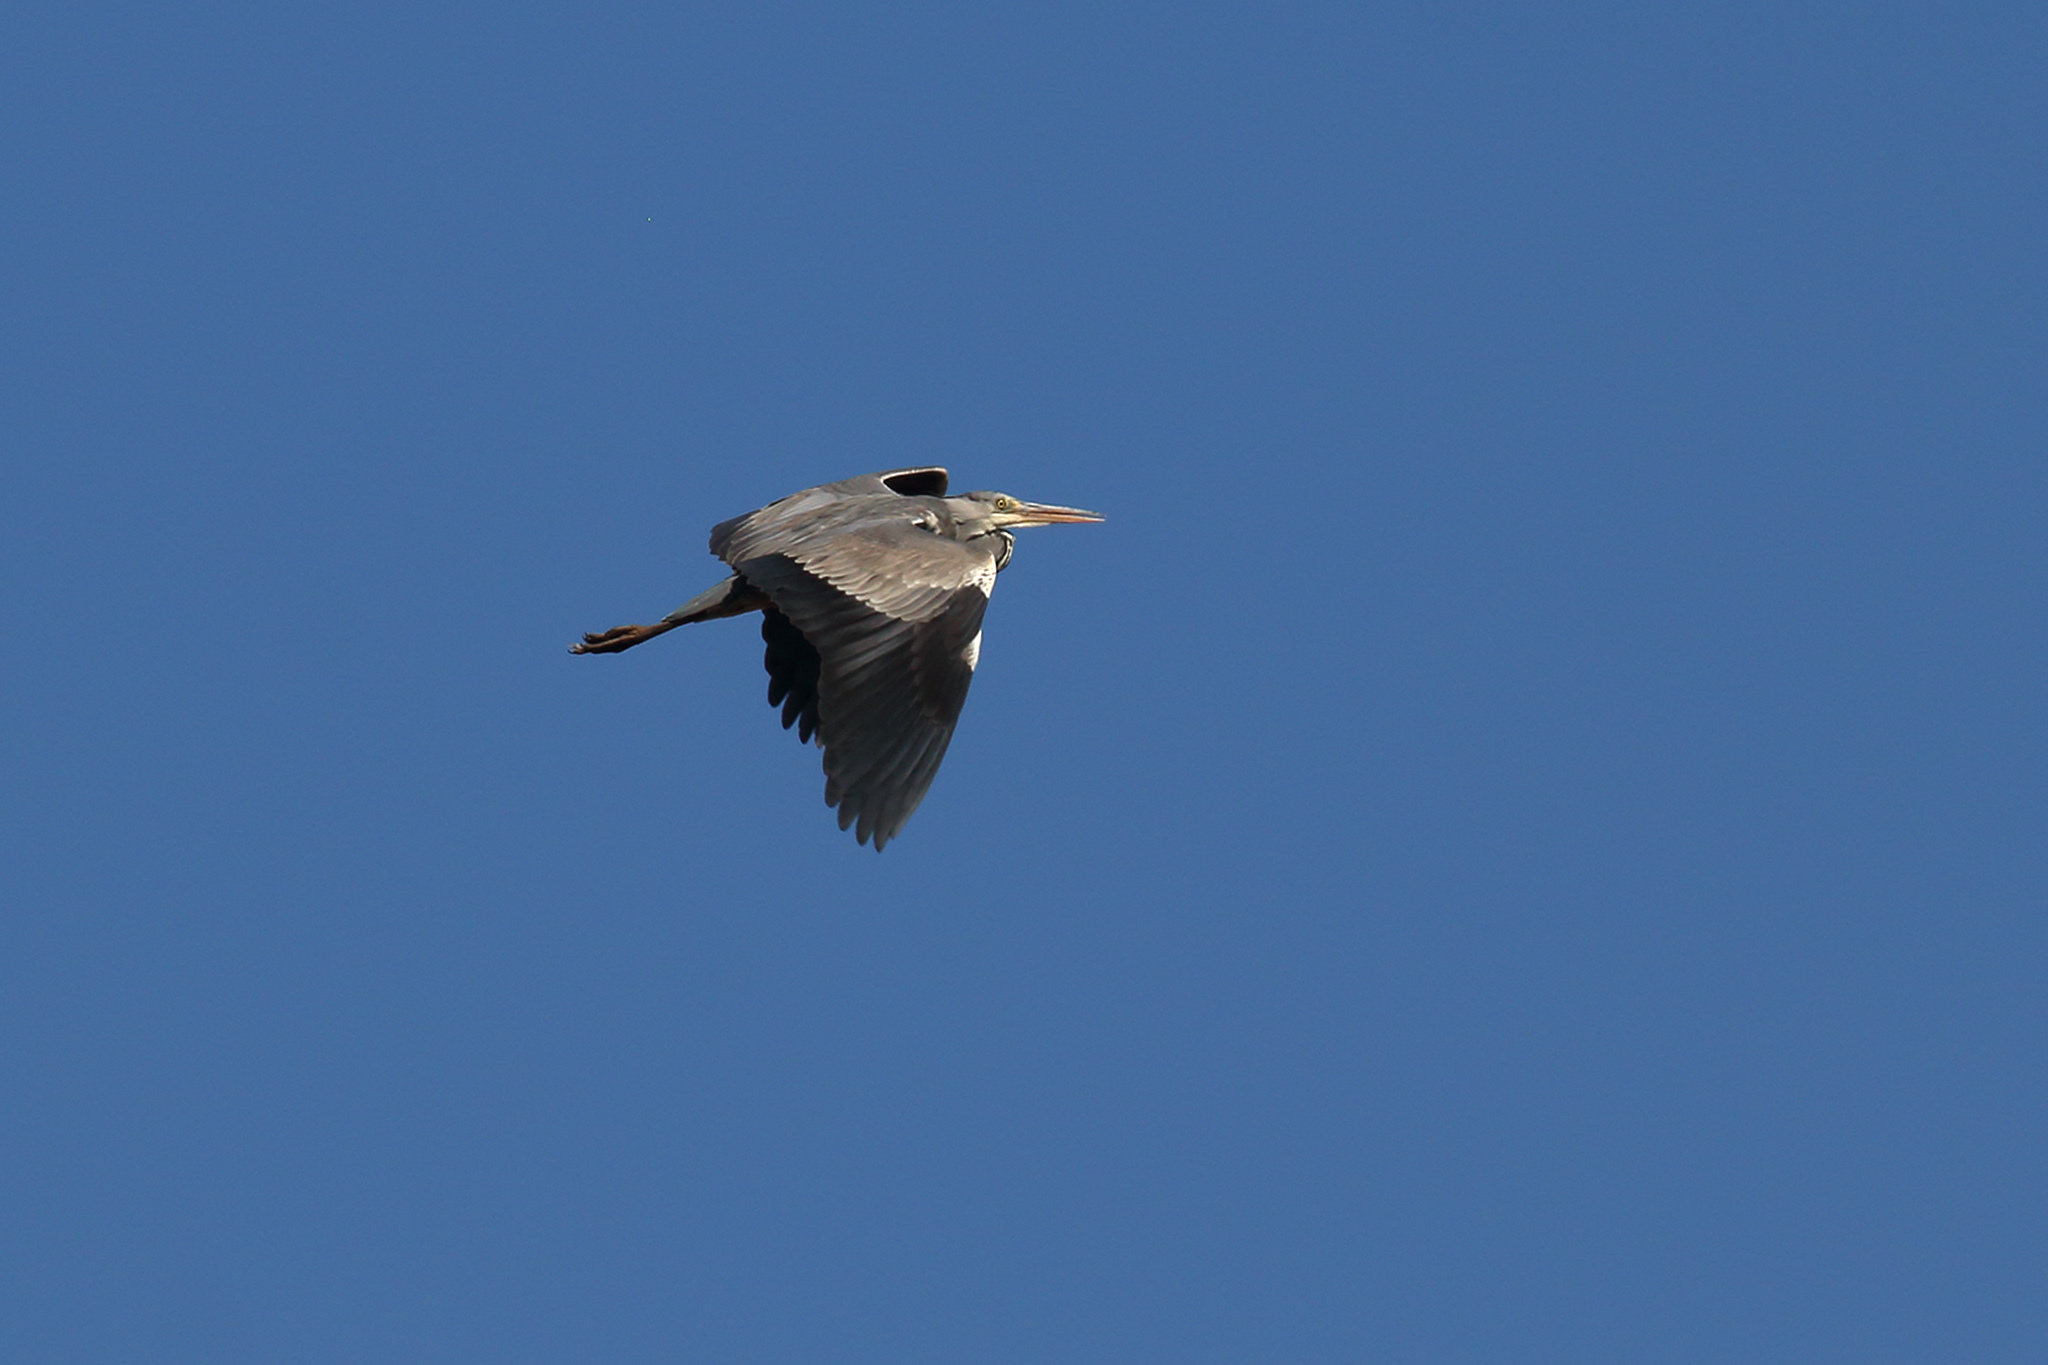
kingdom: Animalia
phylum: Chordata
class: Aves
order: Pelecaniformes
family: Ardeidae
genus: Ardea
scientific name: Ardea cinerea
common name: Grey heron
